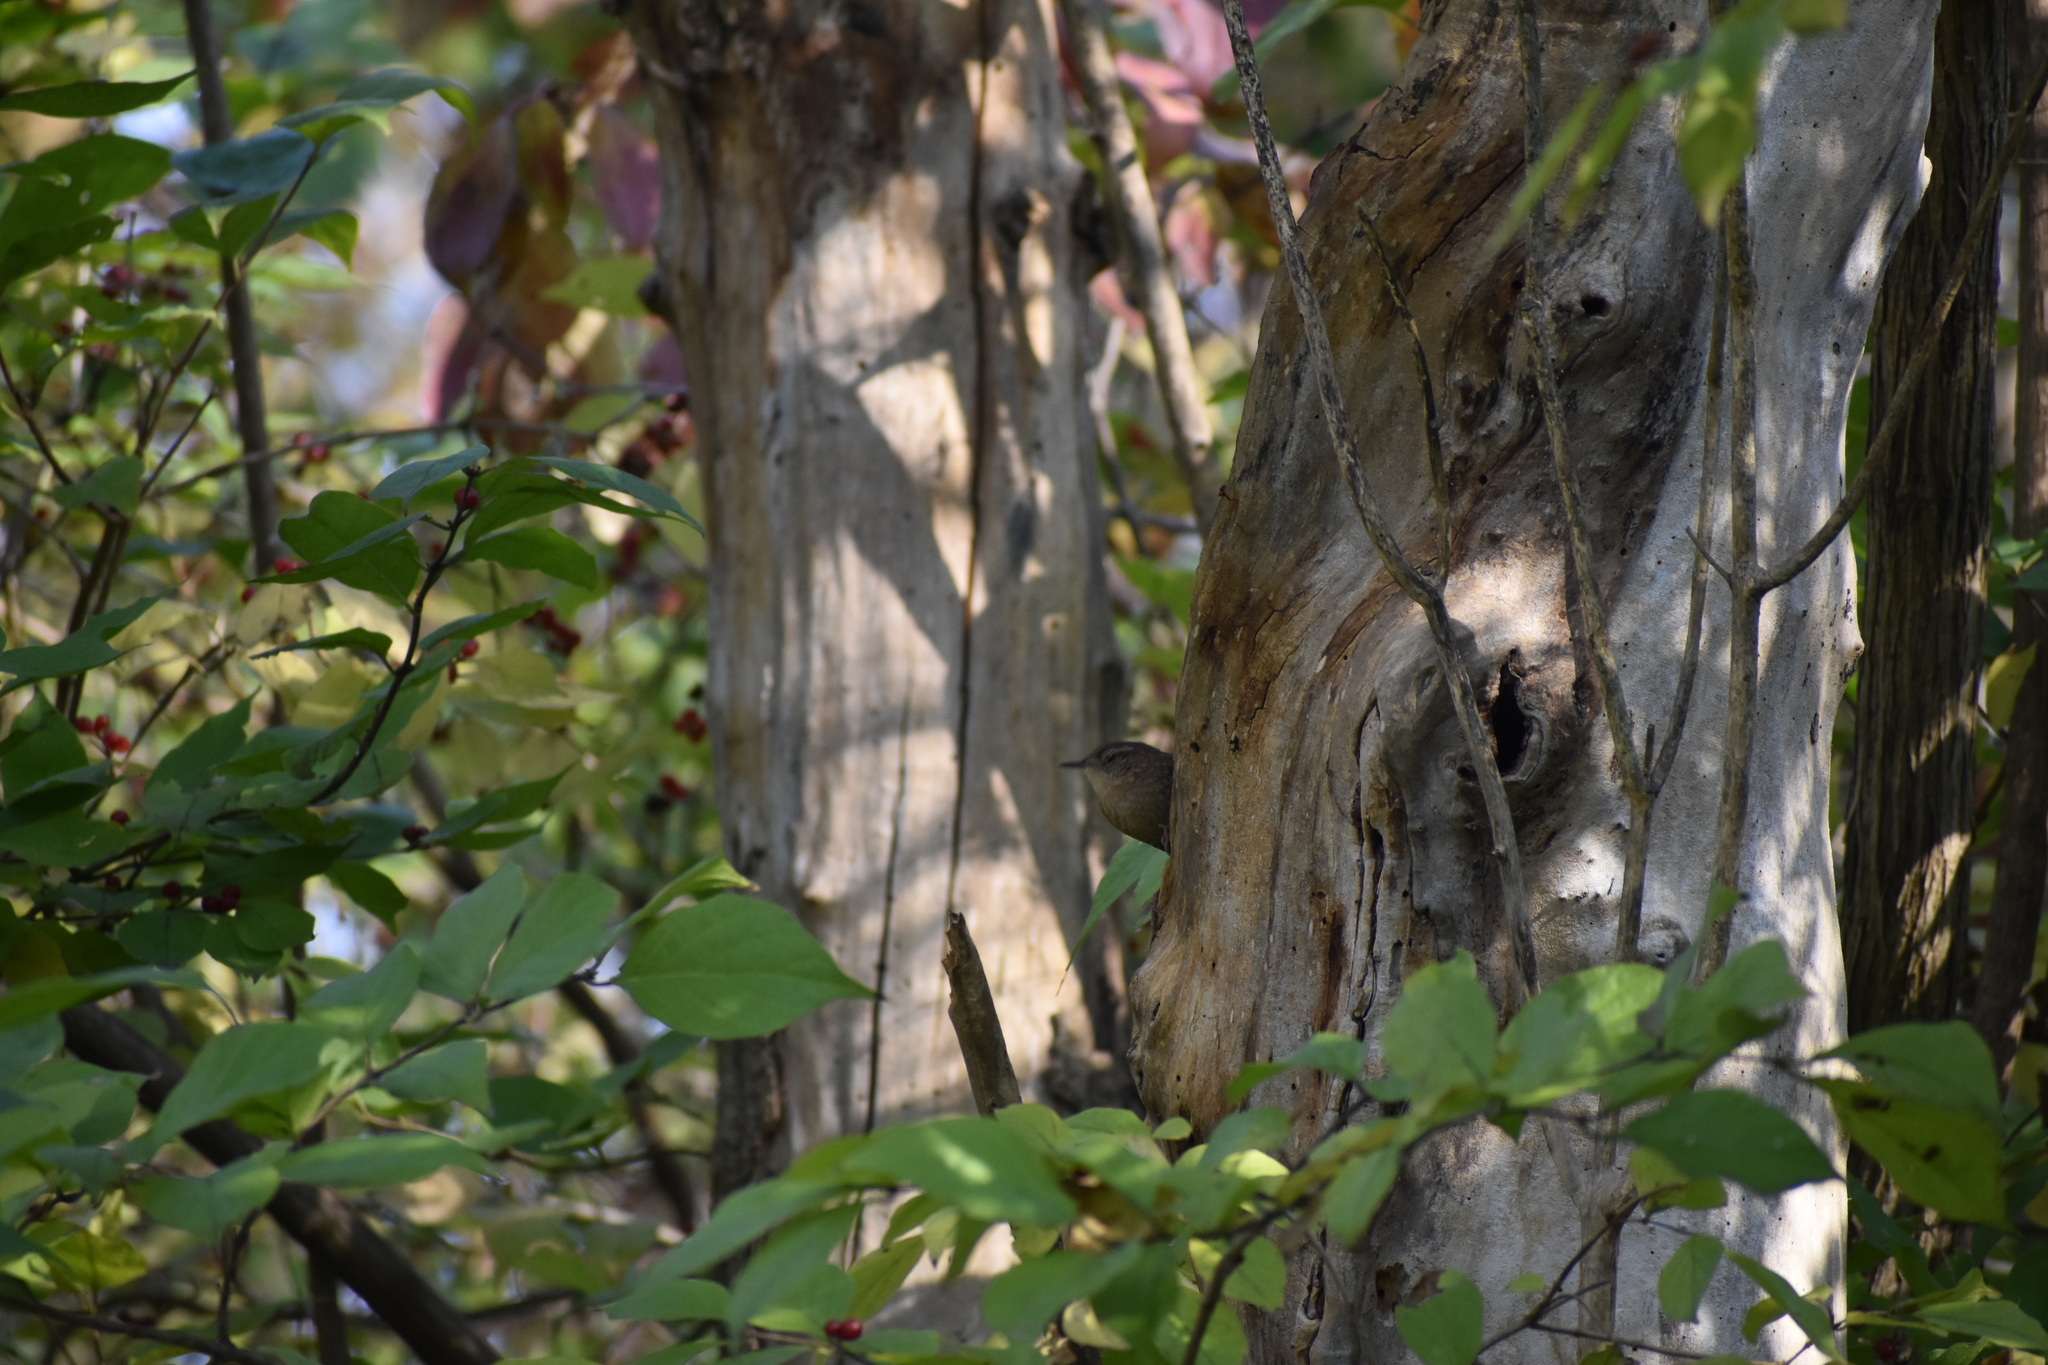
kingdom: Animalia
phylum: Chordata
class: Aves
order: Passeriformes
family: Troglodytidae
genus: Troglodytes
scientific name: Troglodytes hiemalis
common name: Winter wren
